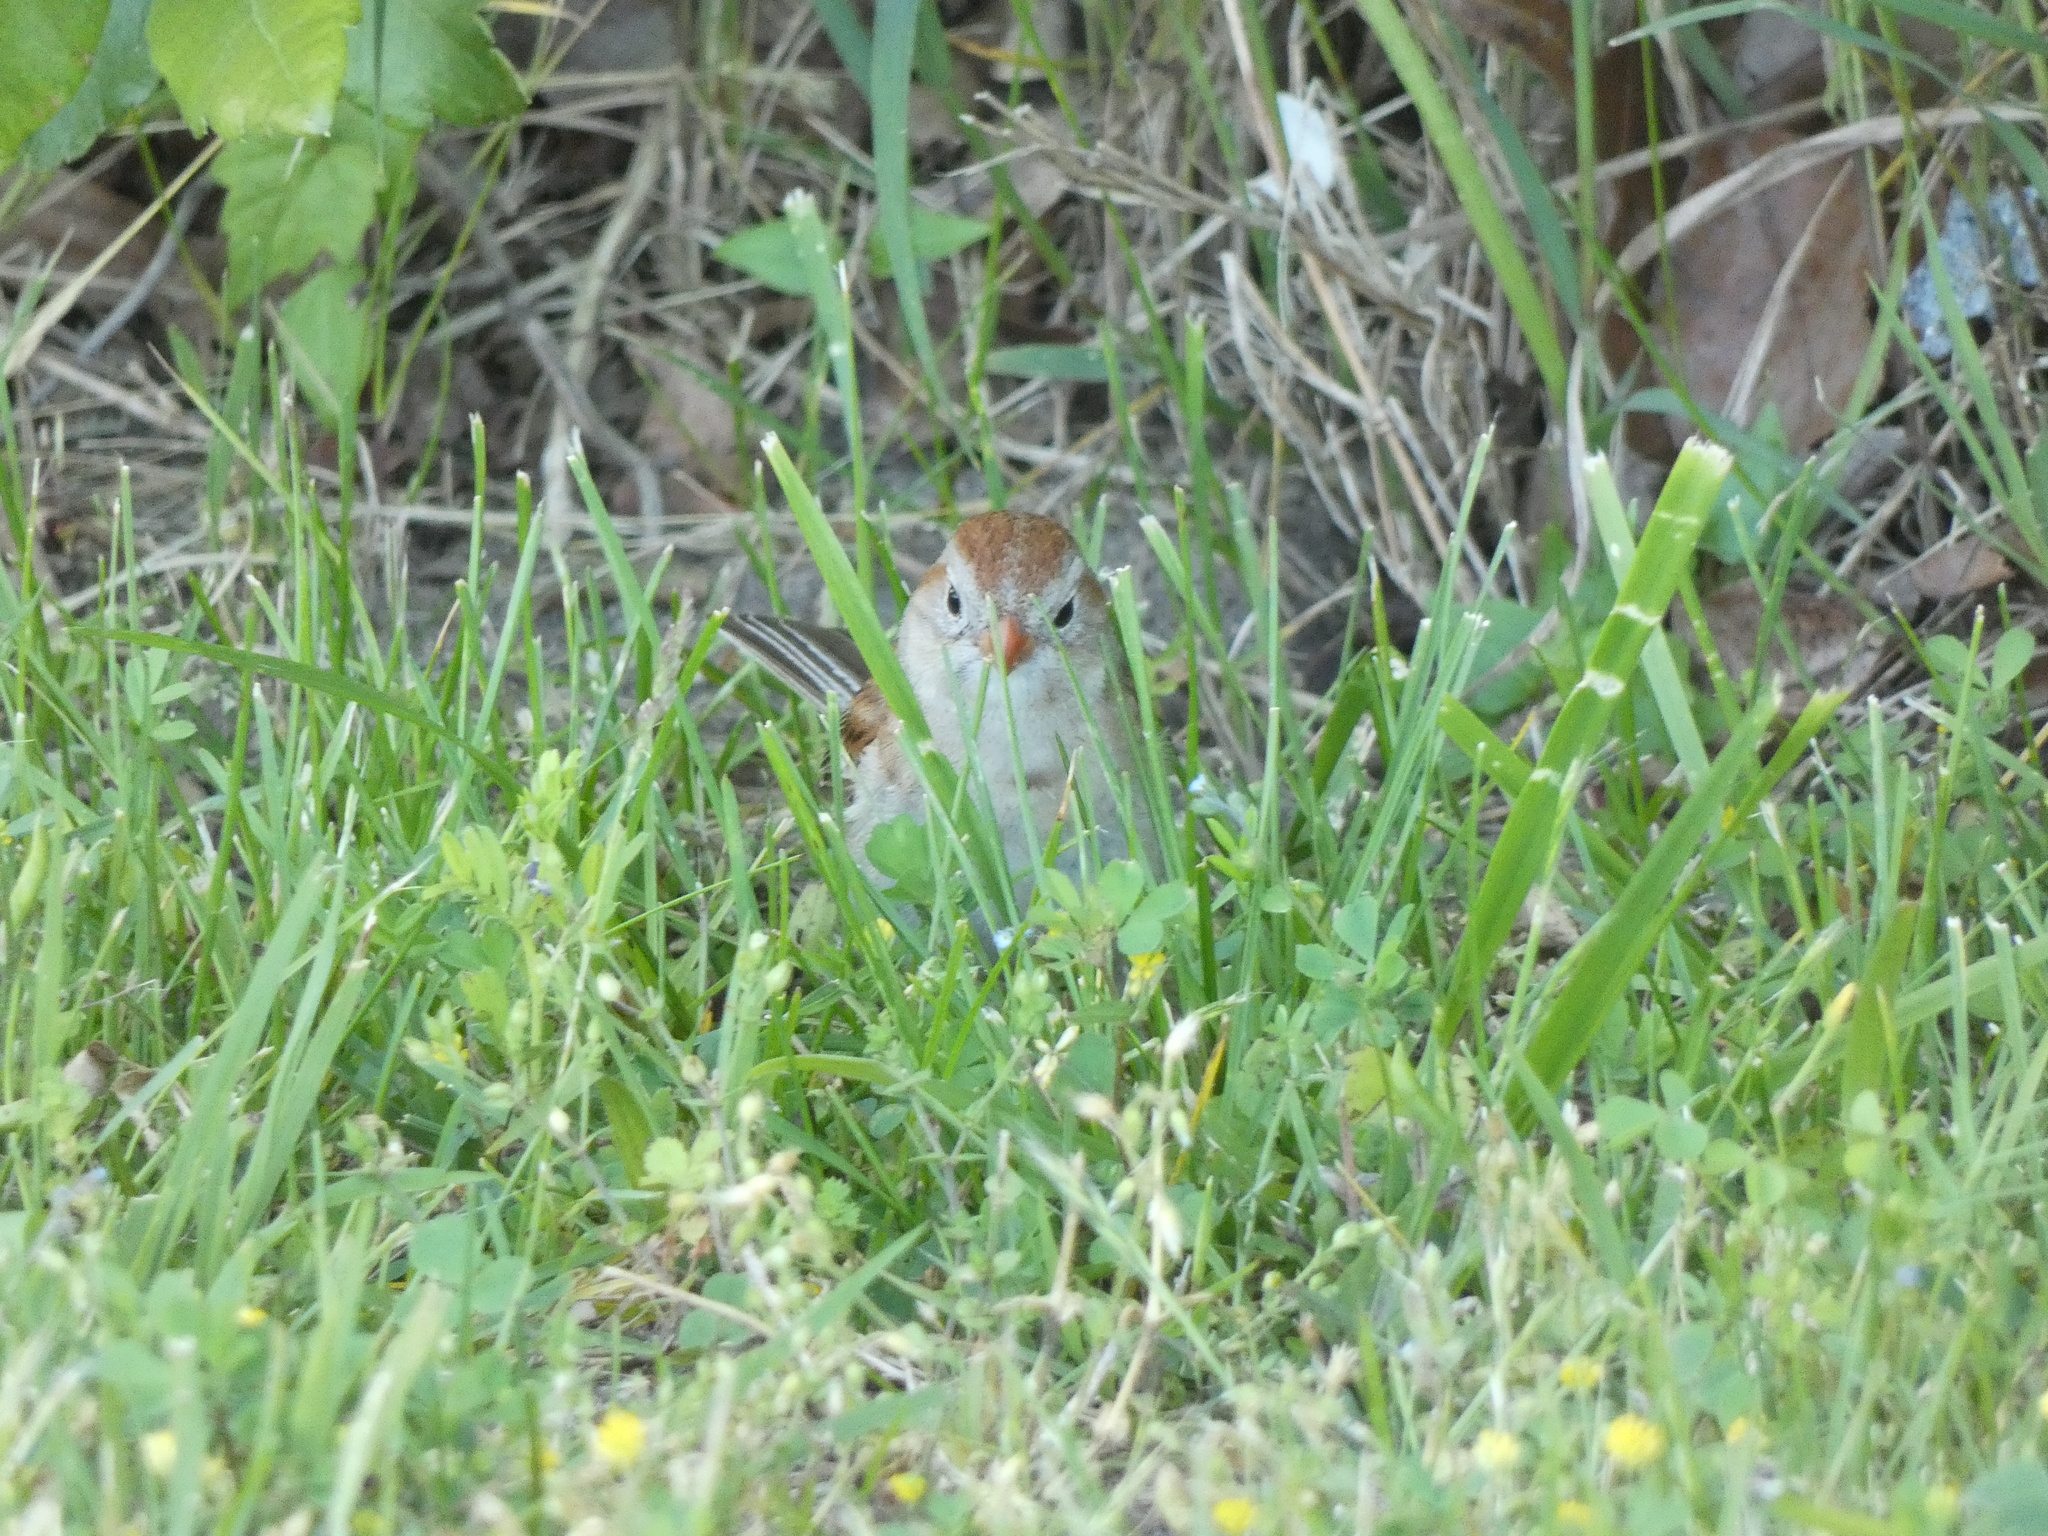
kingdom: Animalia
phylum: Chordata
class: Aves
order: Passeriformes
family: Passerellidae
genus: Spizella
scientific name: Spizella pusilla
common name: Field sparrow
